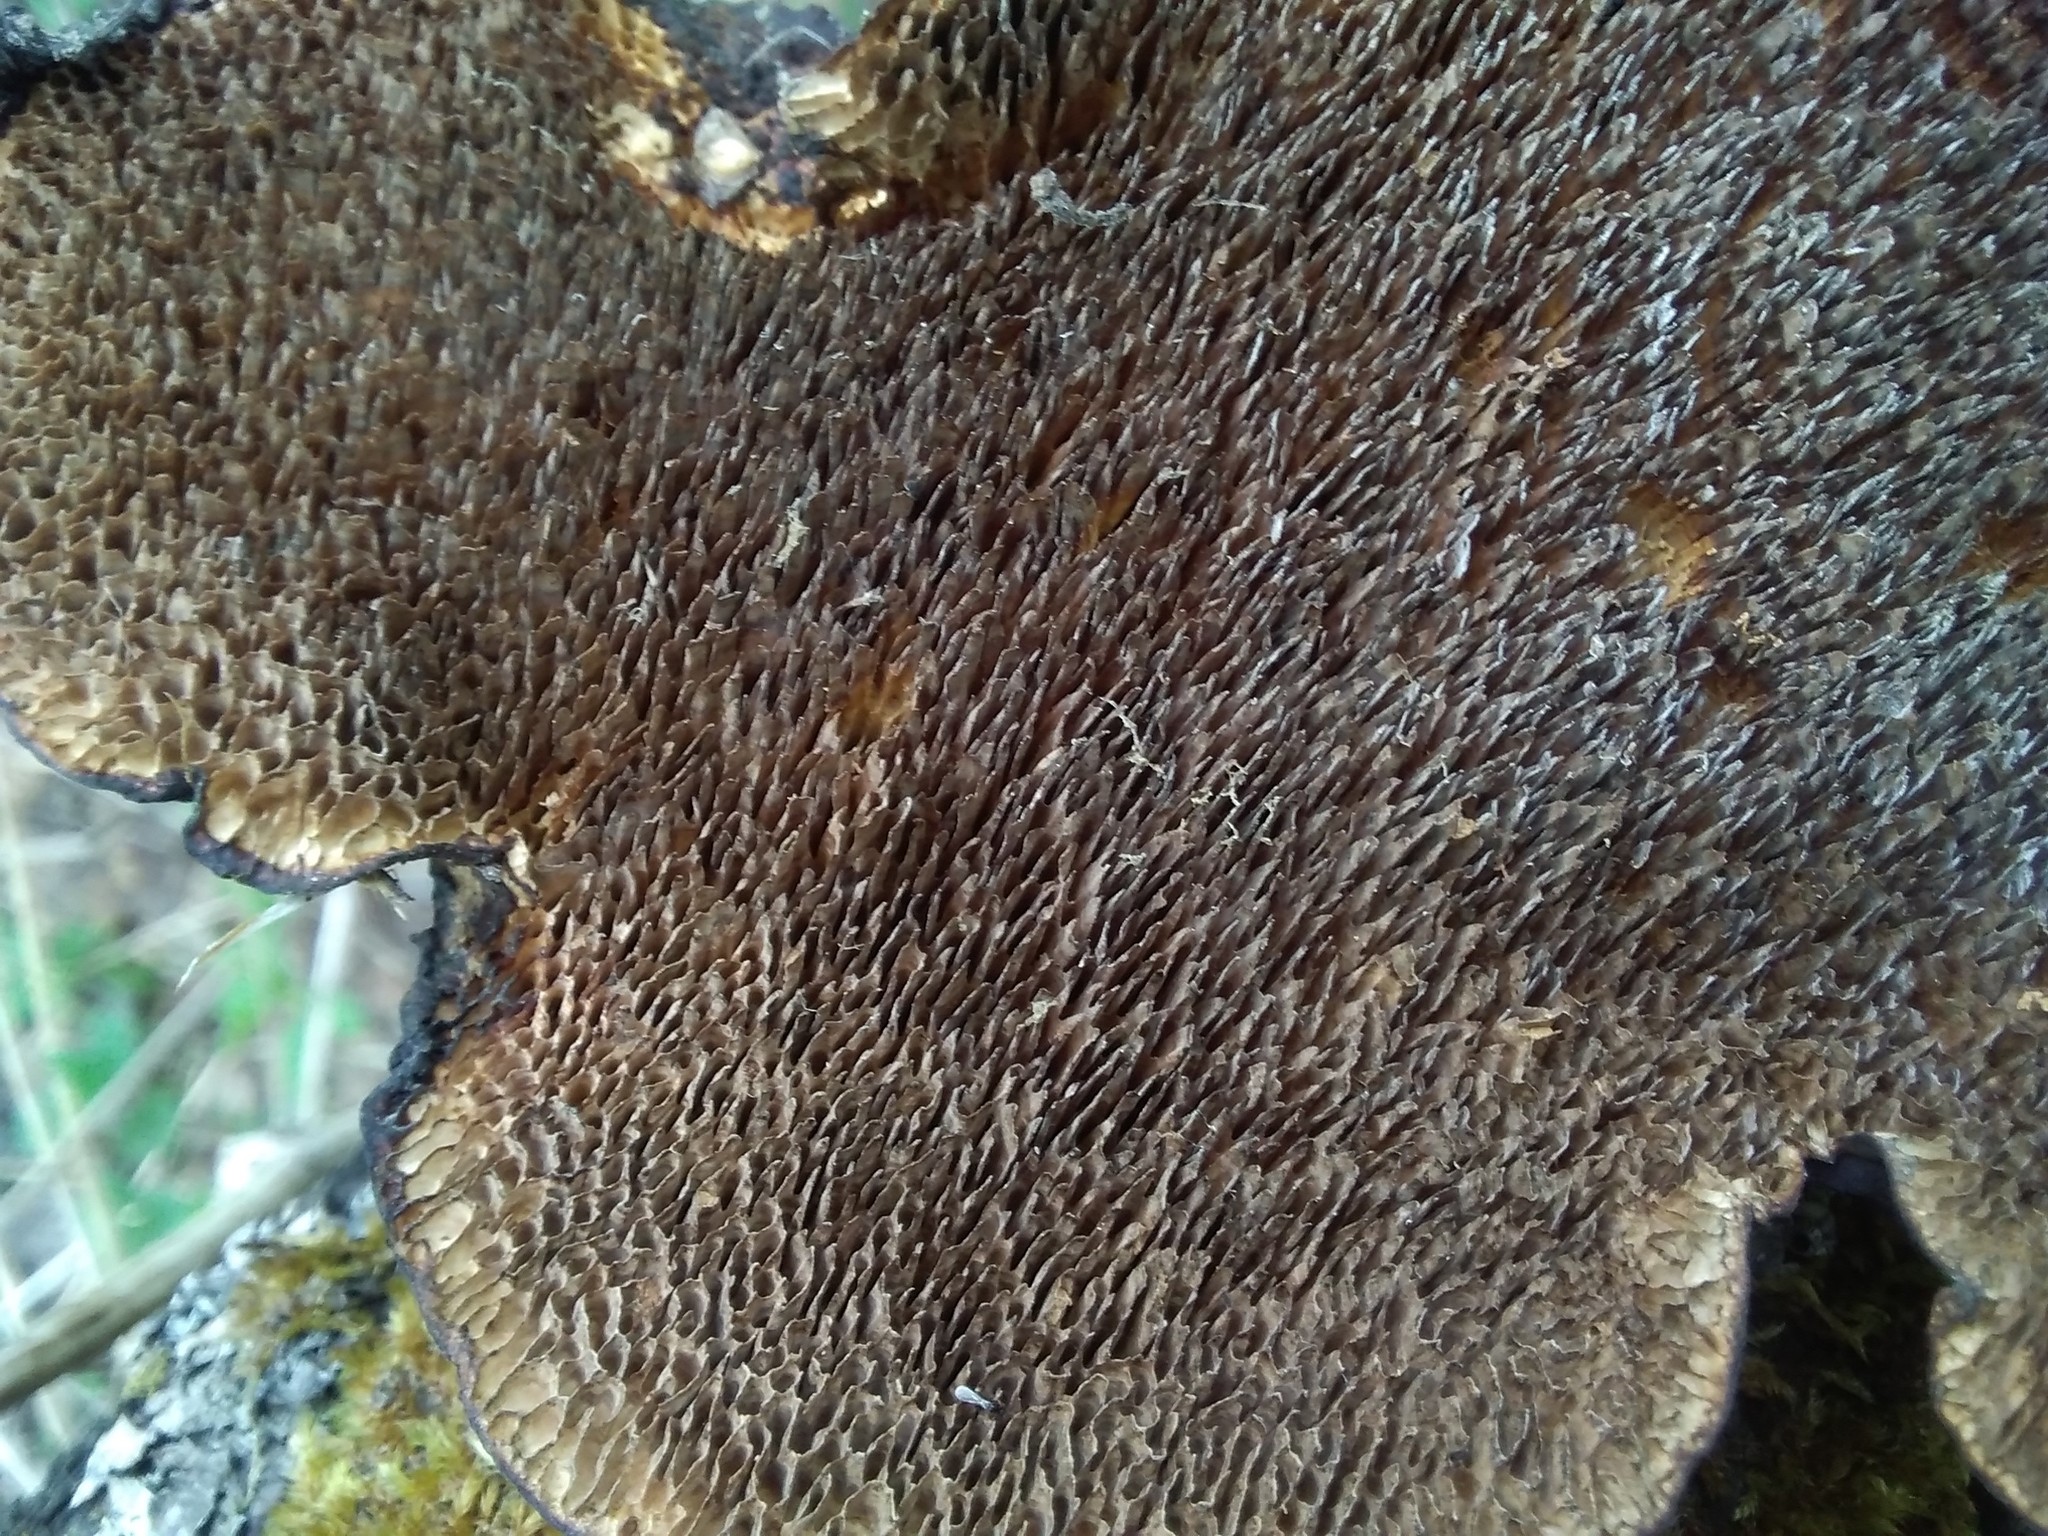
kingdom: Fungi
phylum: Basidiomycota
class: Agaricomycetes
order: Polyporales
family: Polyporaceae
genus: Daedaleopsis
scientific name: Daedaleopsis confragosa
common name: Blushing bracket
